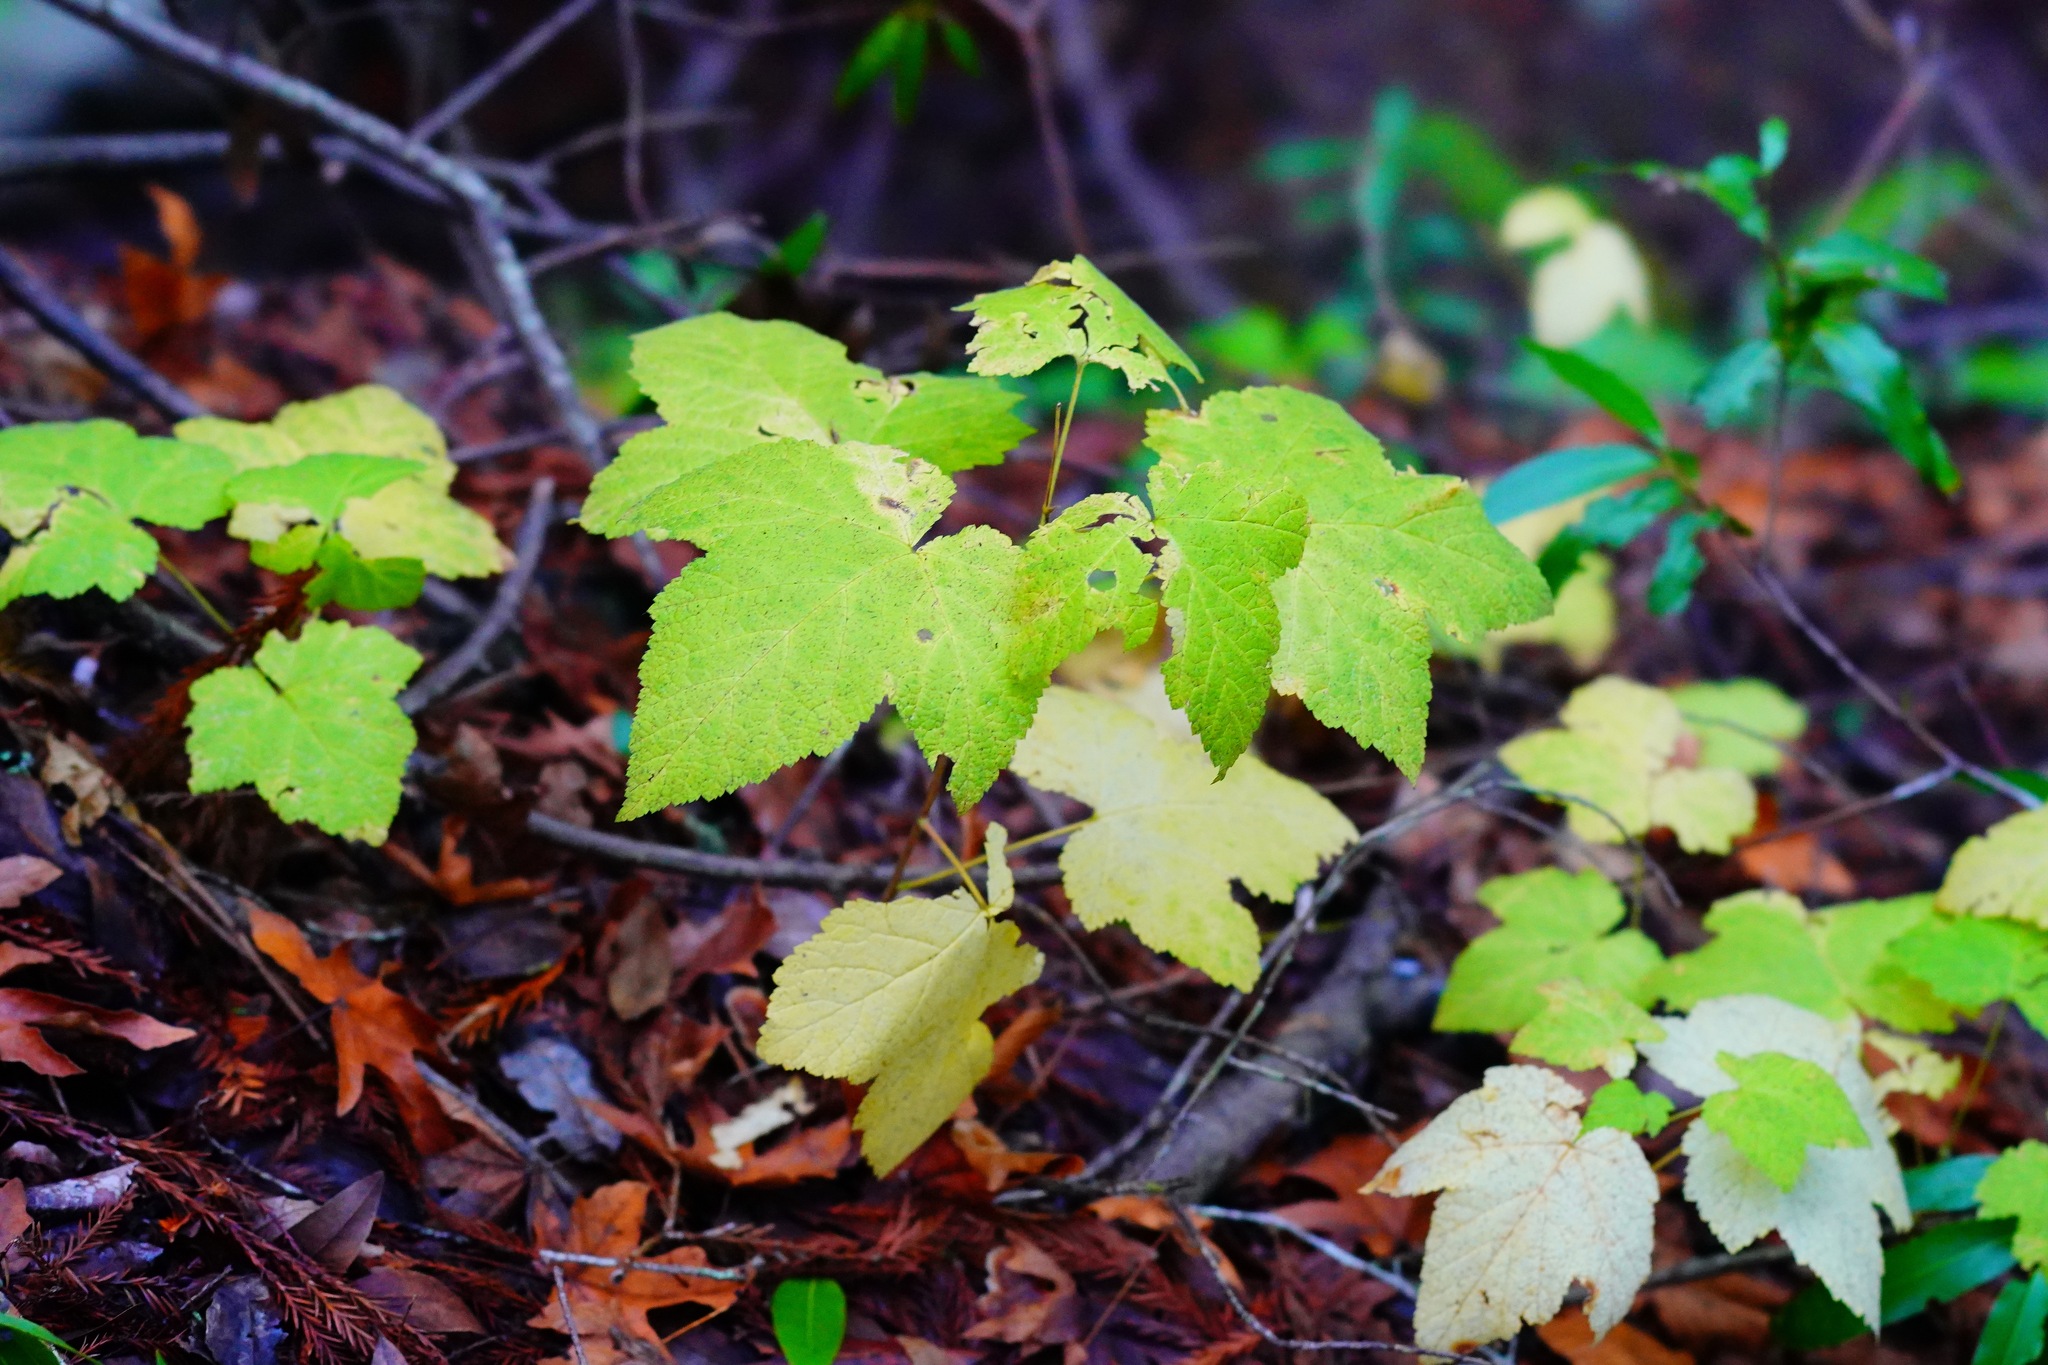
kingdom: Plantae
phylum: Tracheophyta
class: Magnoliopsida
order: Rosales
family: Rosaceae
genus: Rubus
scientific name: Rubus parviflorus
